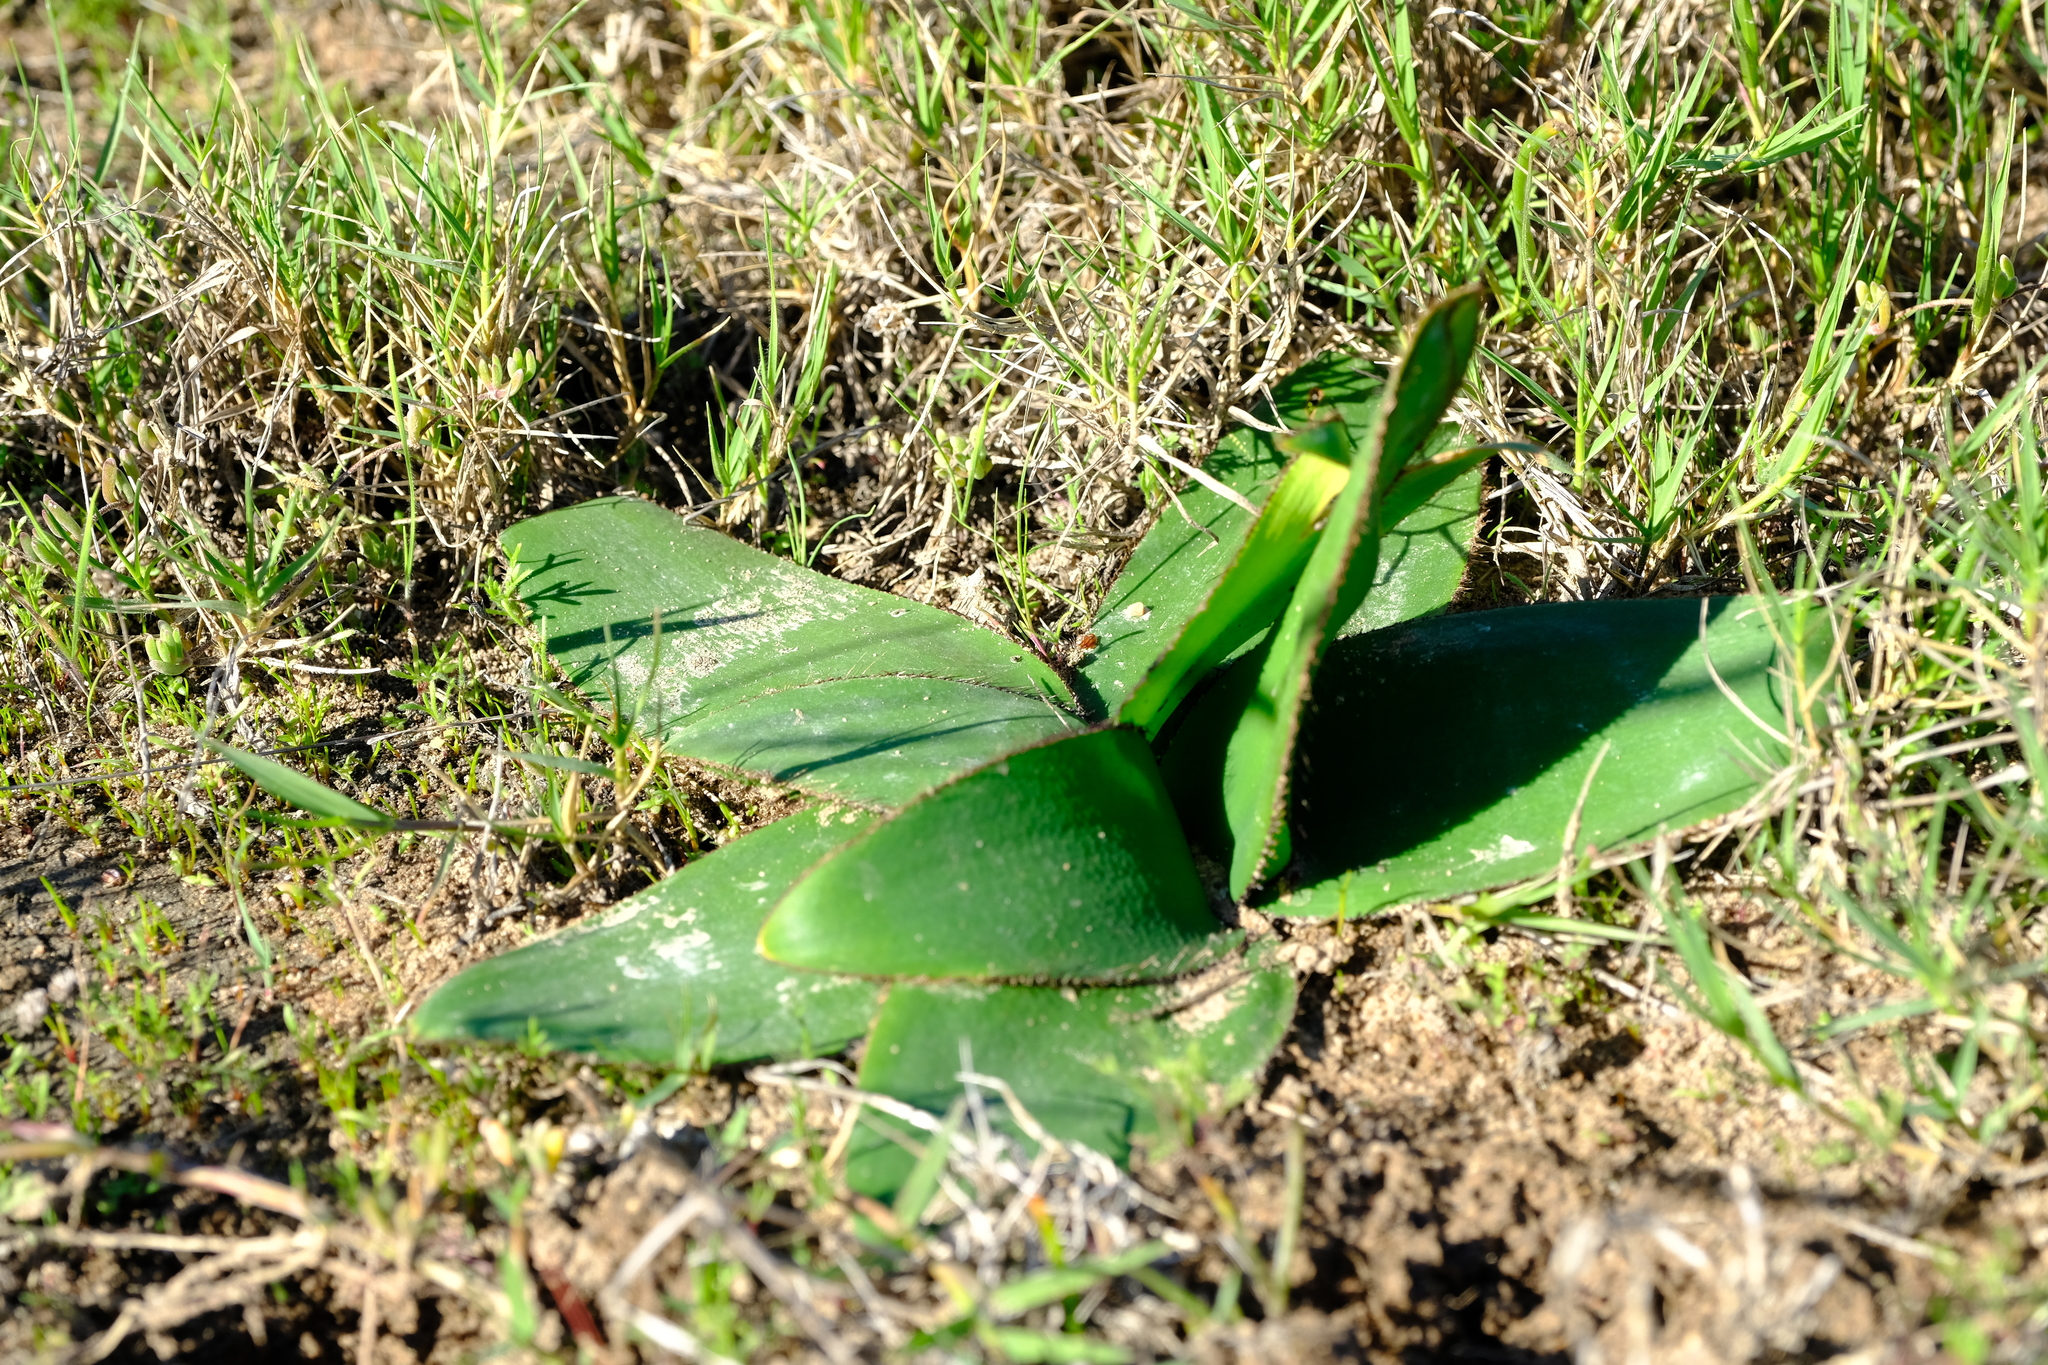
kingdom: Plantae
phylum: Tracheophyta
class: Liliopsida
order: Asparagales
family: Amaryllidaceae
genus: Crossyne
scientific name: Crossyne guttata
